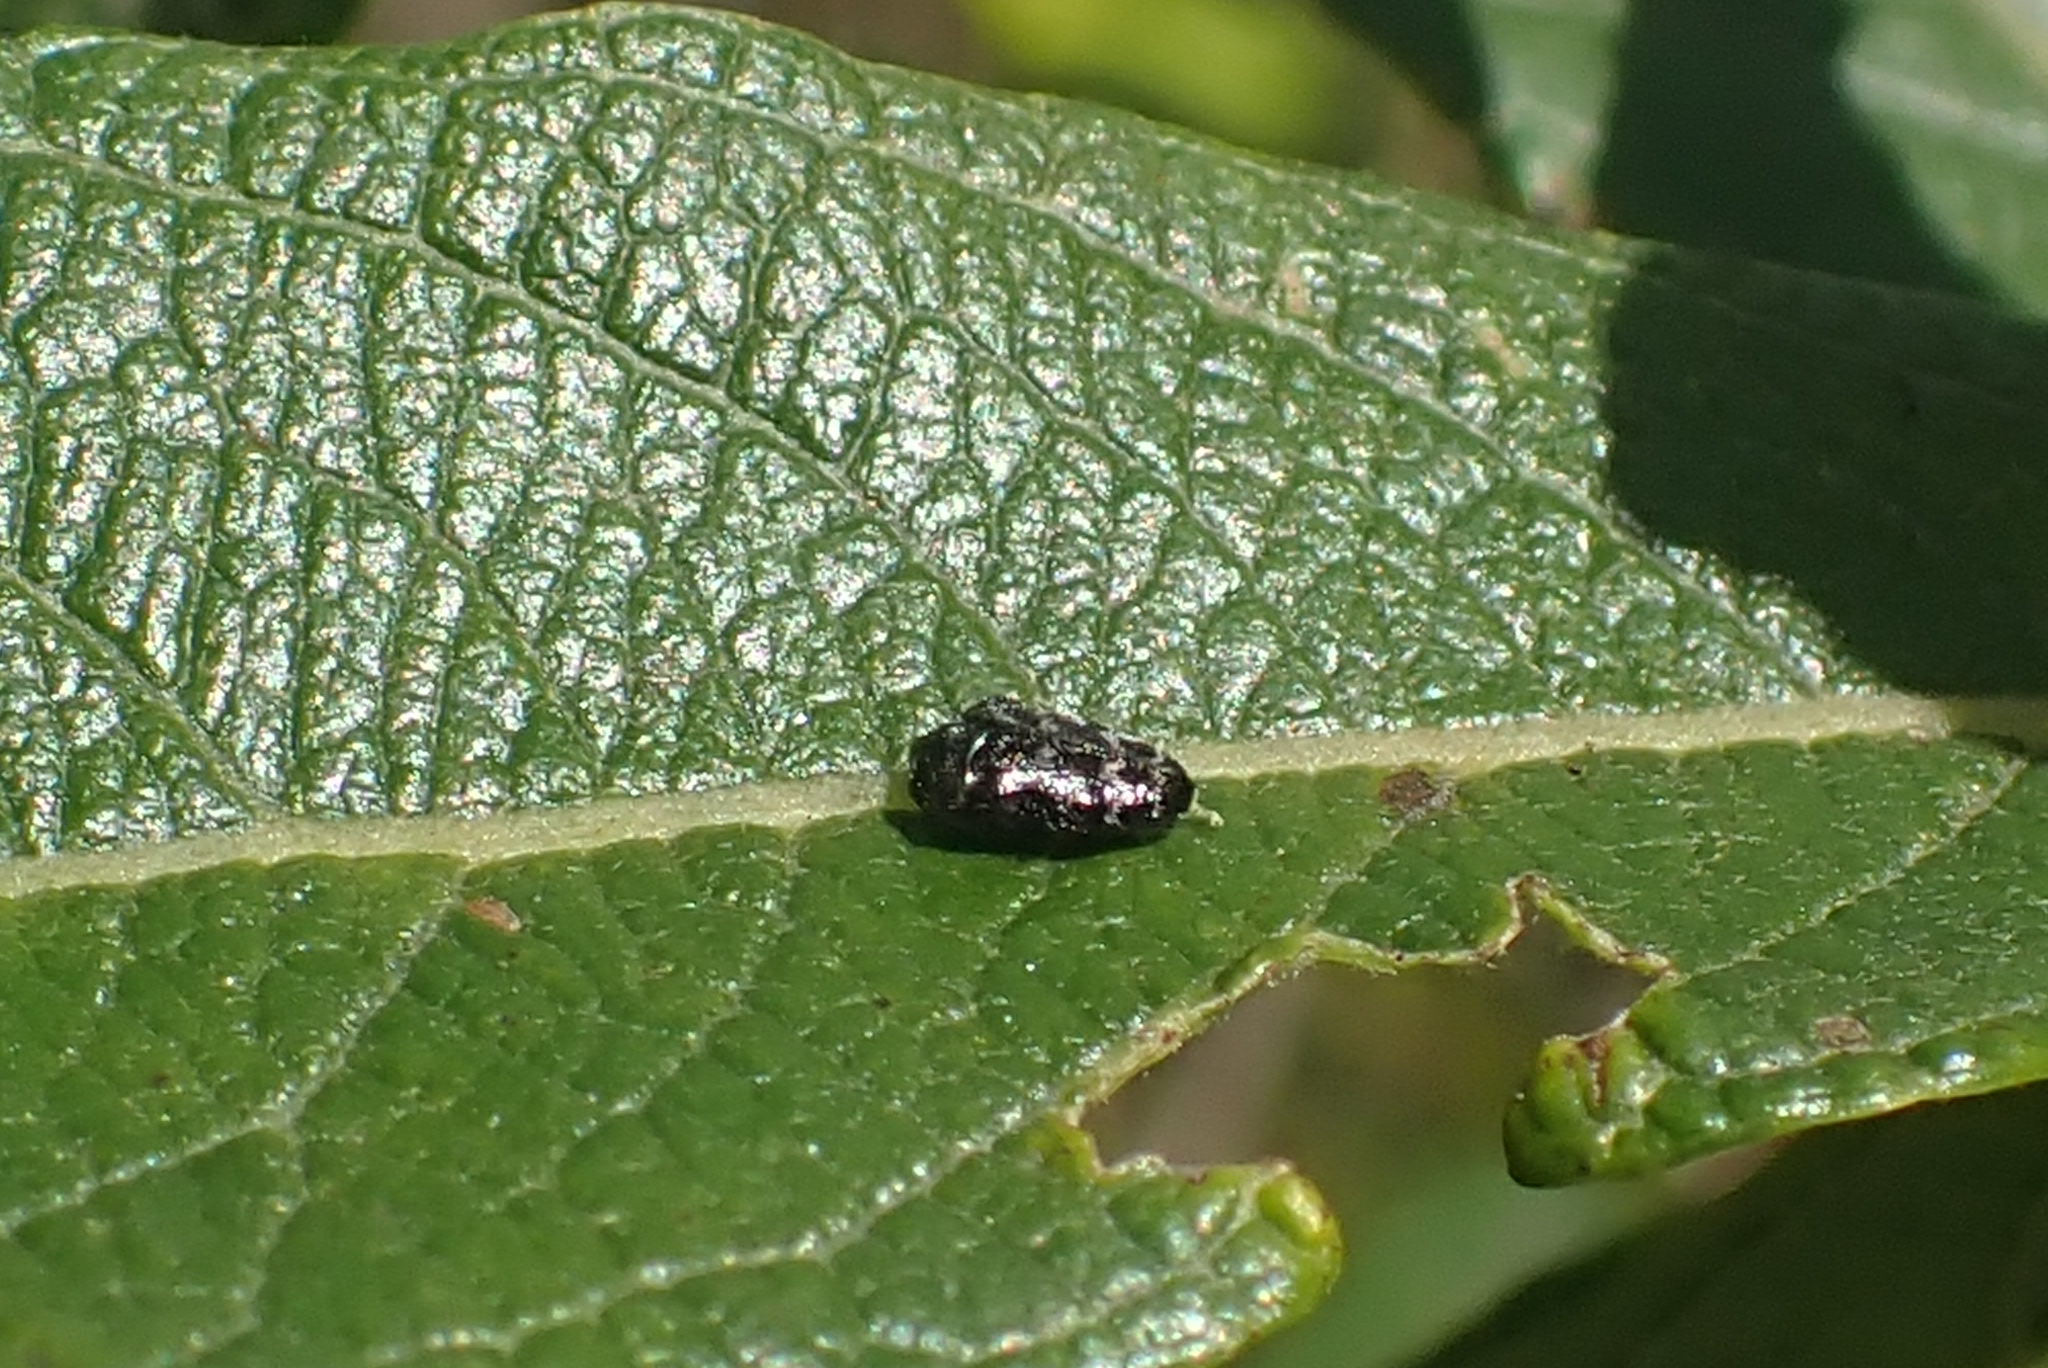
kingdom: Animalia
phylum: Arthropoda
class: Insecta
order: Coleoptera
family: Buprestidae
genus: Trachys
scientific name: Trachys minutus
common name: Metallic wood-boring beetle
